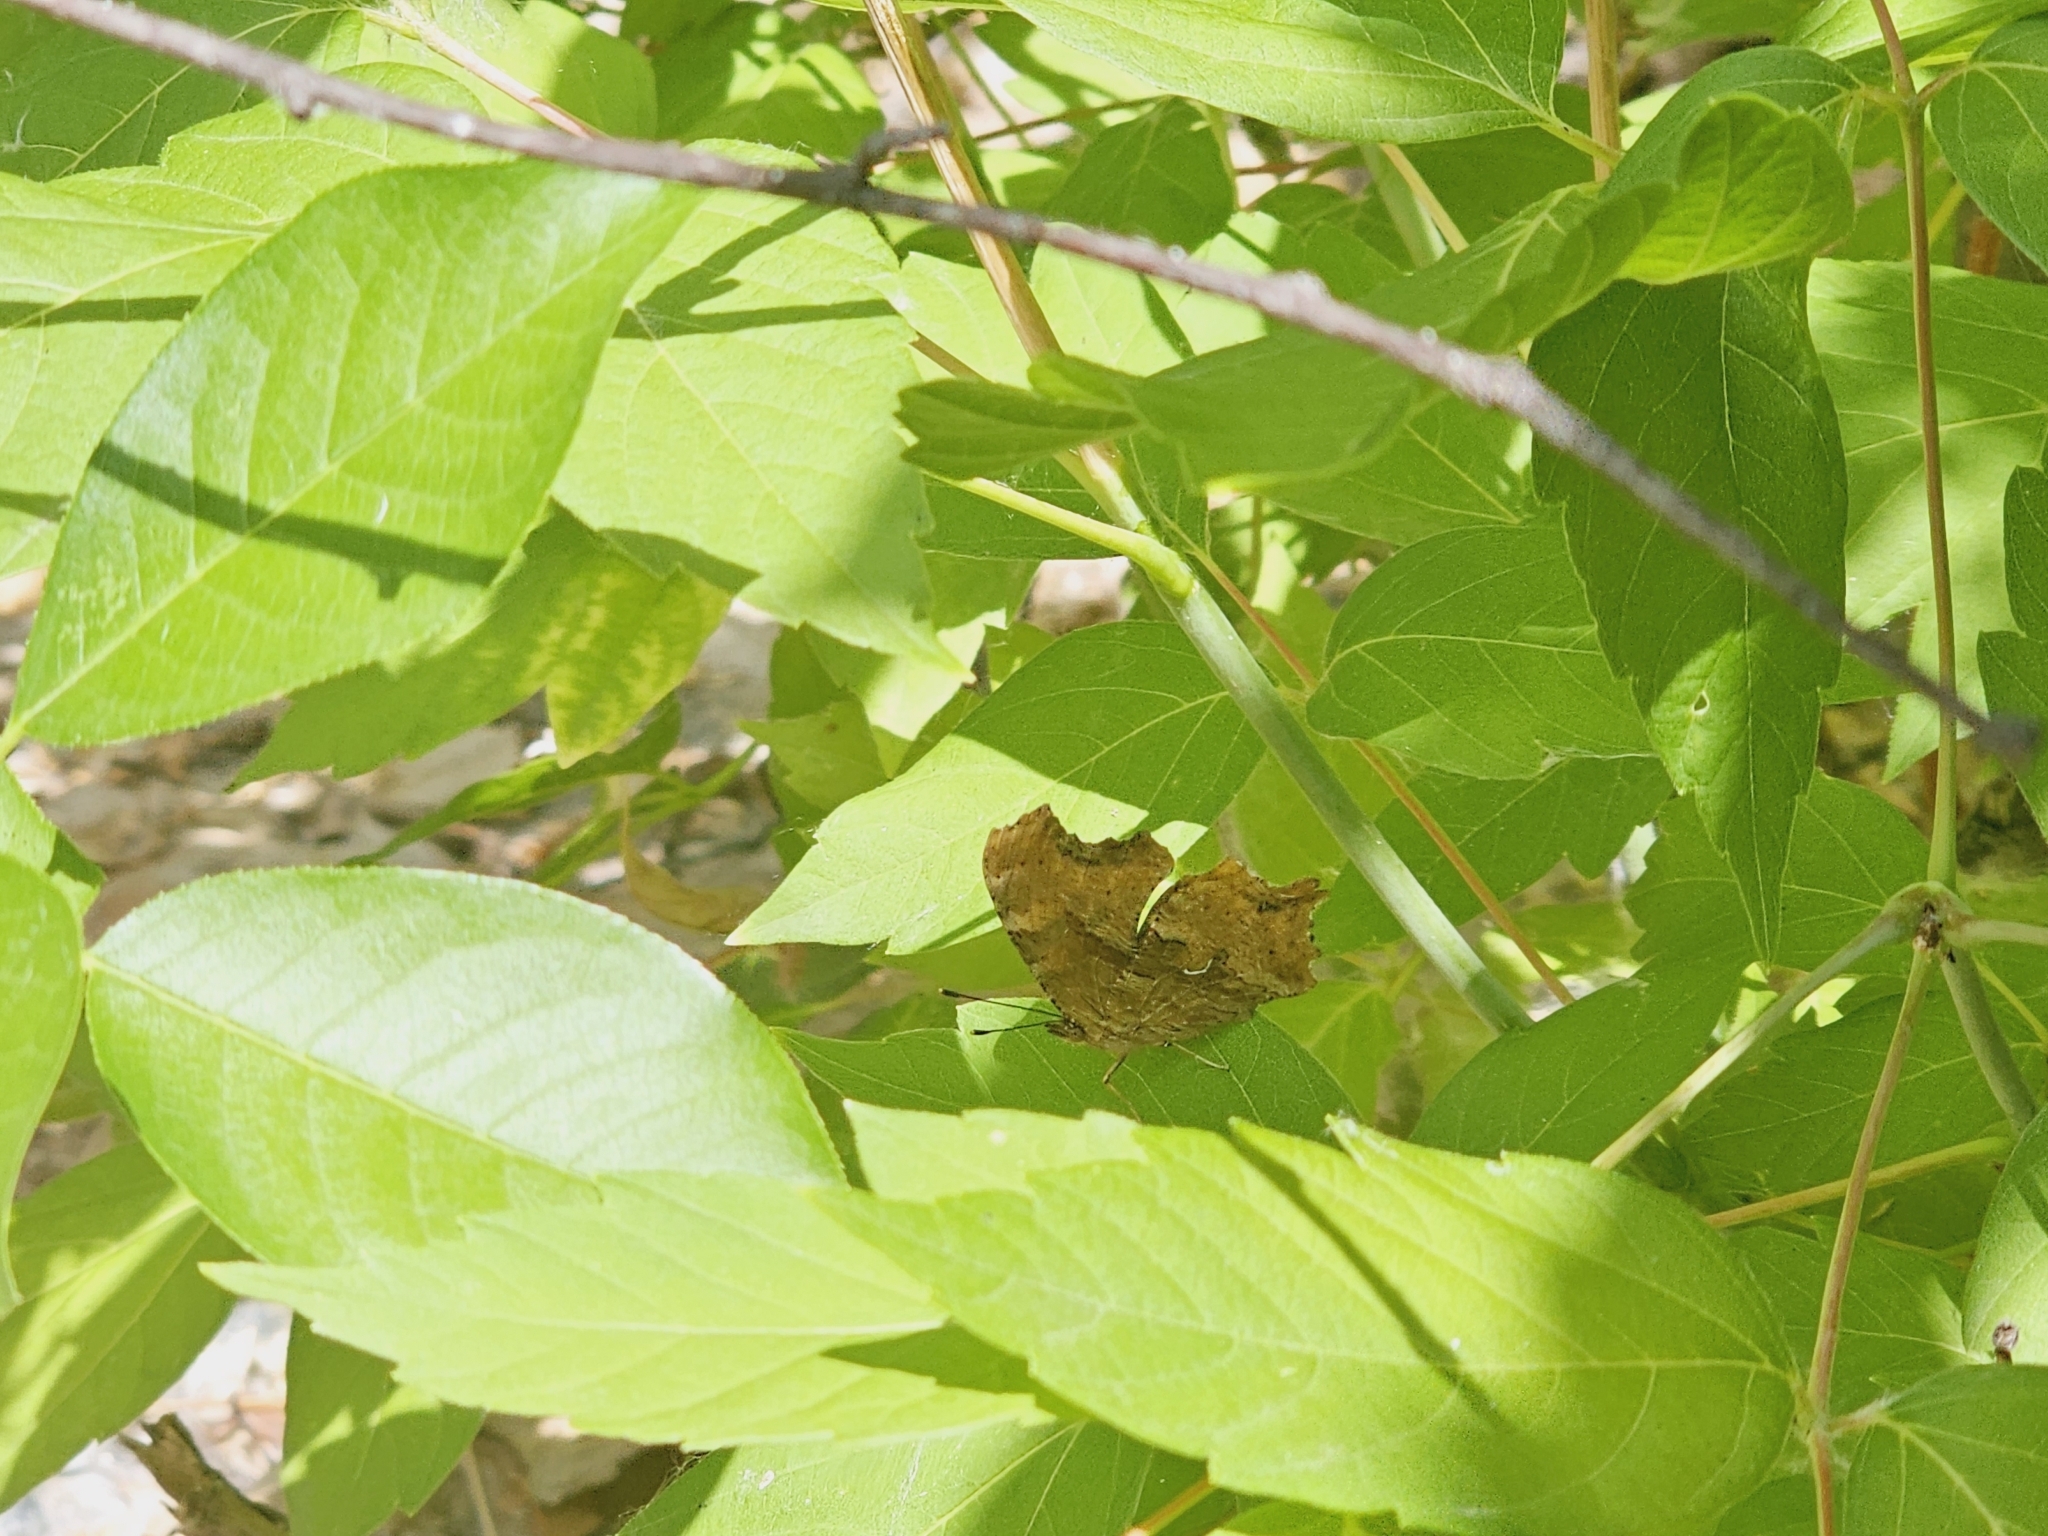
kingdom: Animalia
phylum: Arthropoda
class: Insecta
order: Lepidoptera
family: Nymphalidae
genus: Polygonia
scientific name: Polygonia satyrus
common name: Satyr angle wing
